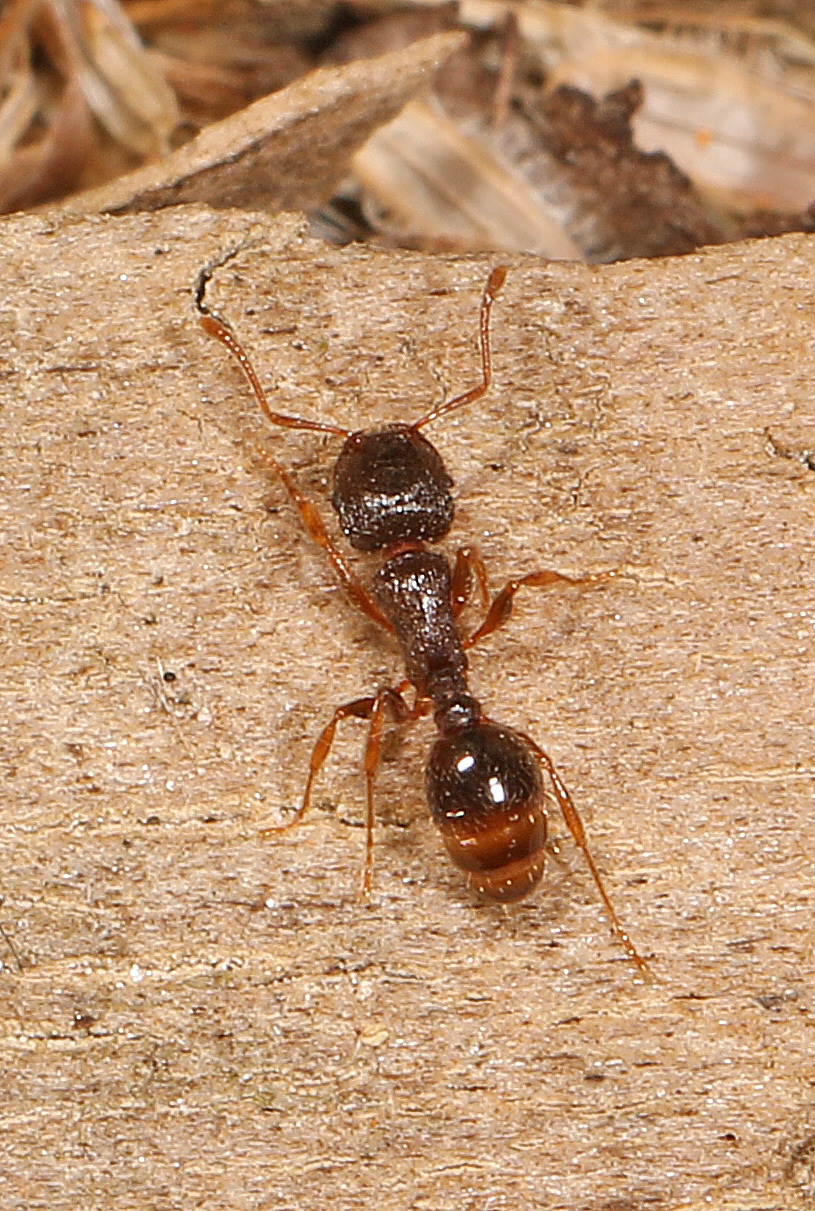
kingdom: Animalia
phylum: Arthropoda
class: Insecta
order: Hymenoptera
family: Formicidae
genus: Tetramorium
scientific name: Tetramorium immigrans
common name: Pavement ant
